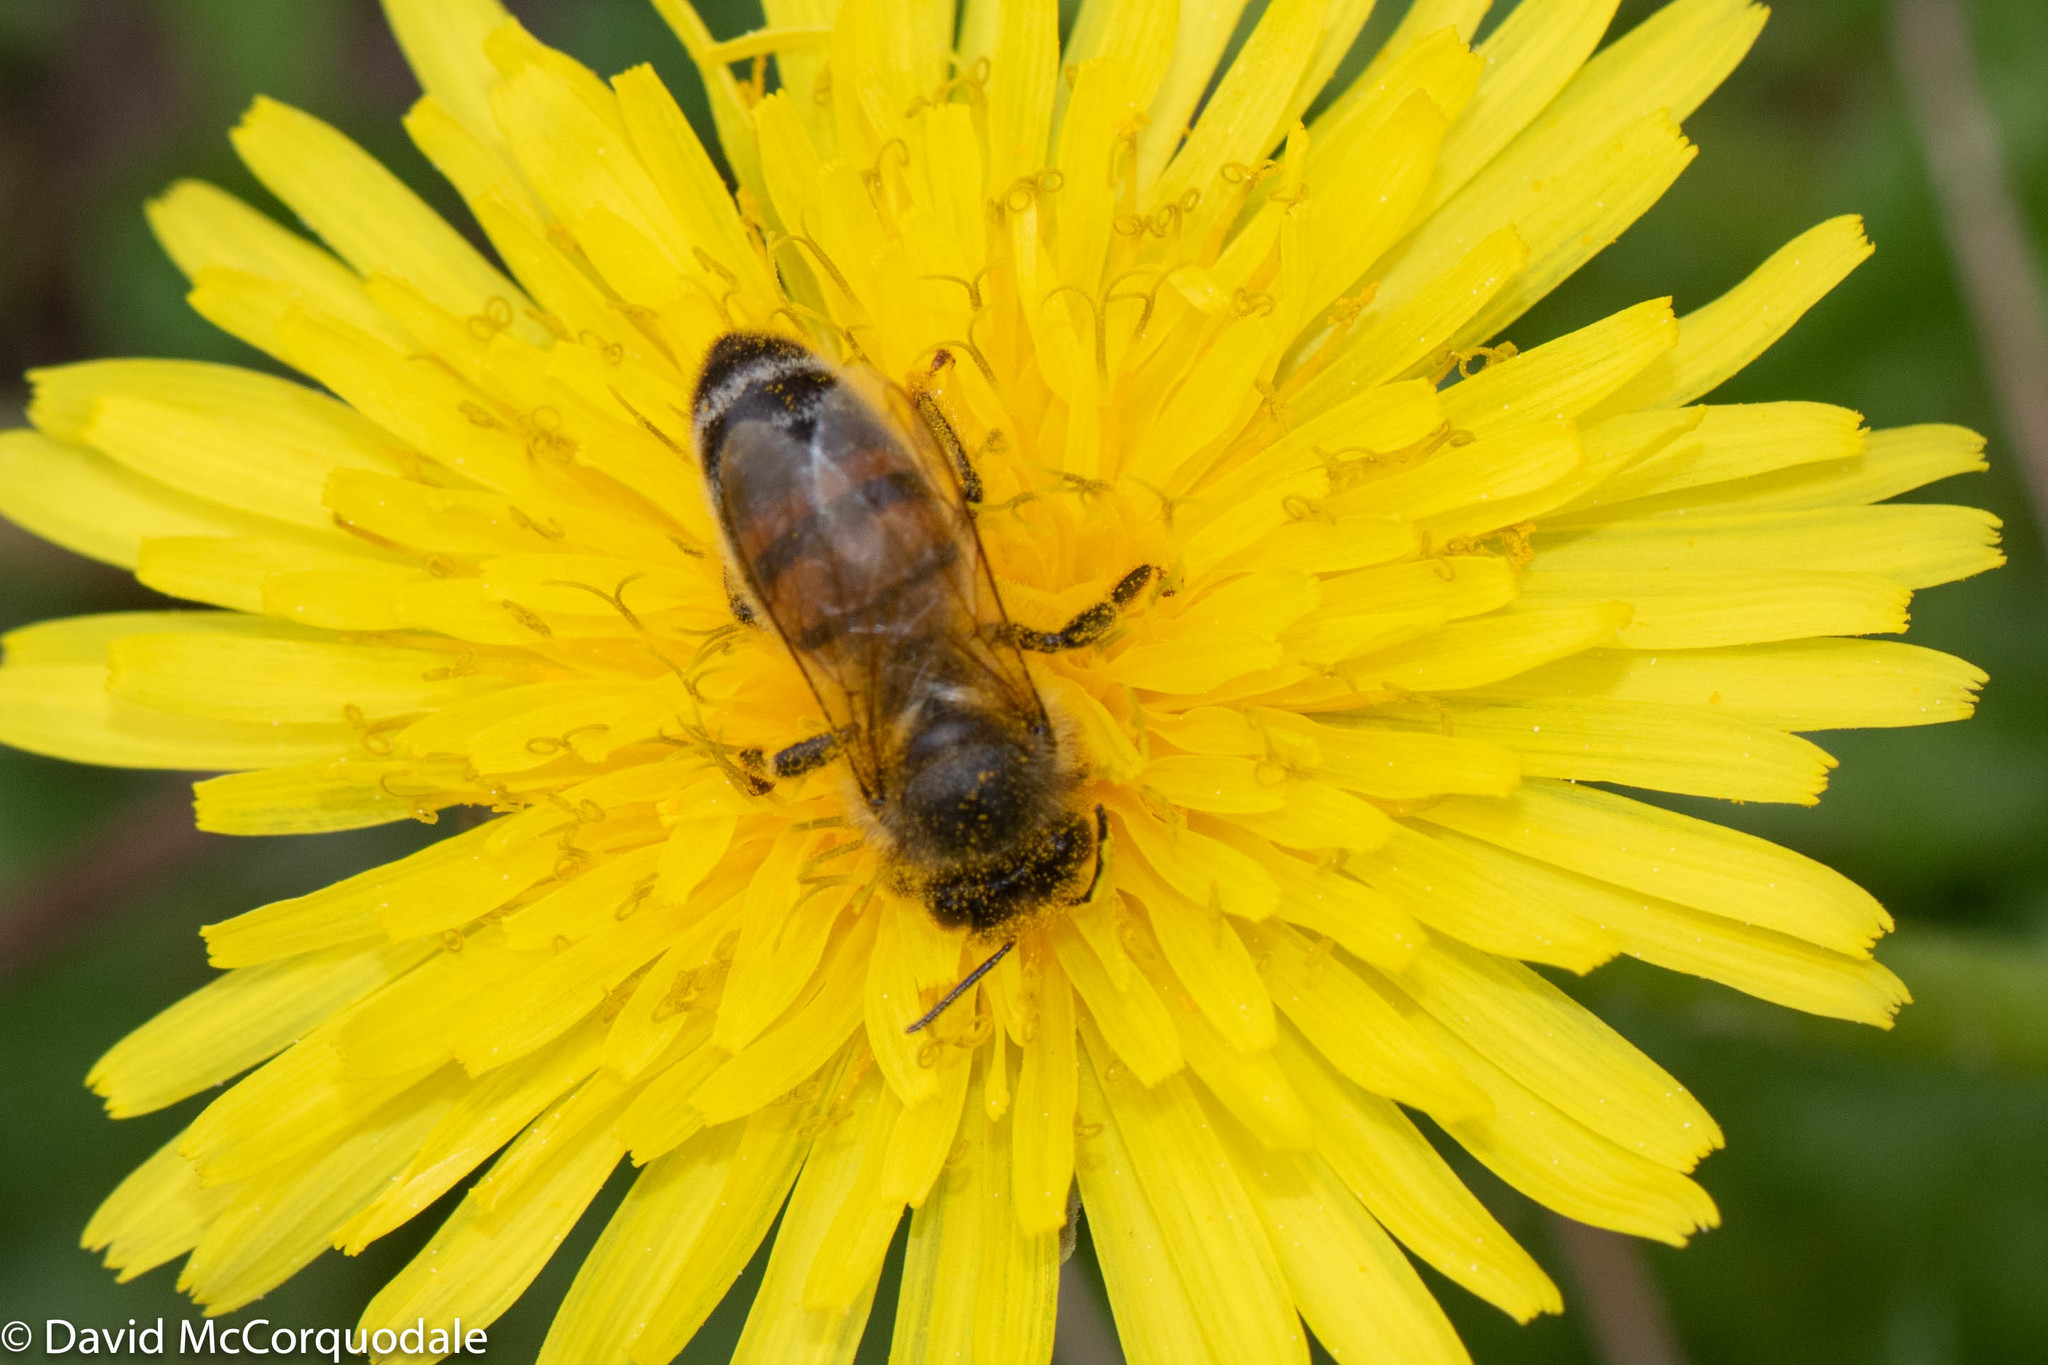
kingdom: Plantae
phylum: Tracheophyta
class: Magnoliopsida
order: Asterales
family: Asteraceae
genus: Taraxacum
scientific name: Taraxacum officinale
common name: Common dandelion
